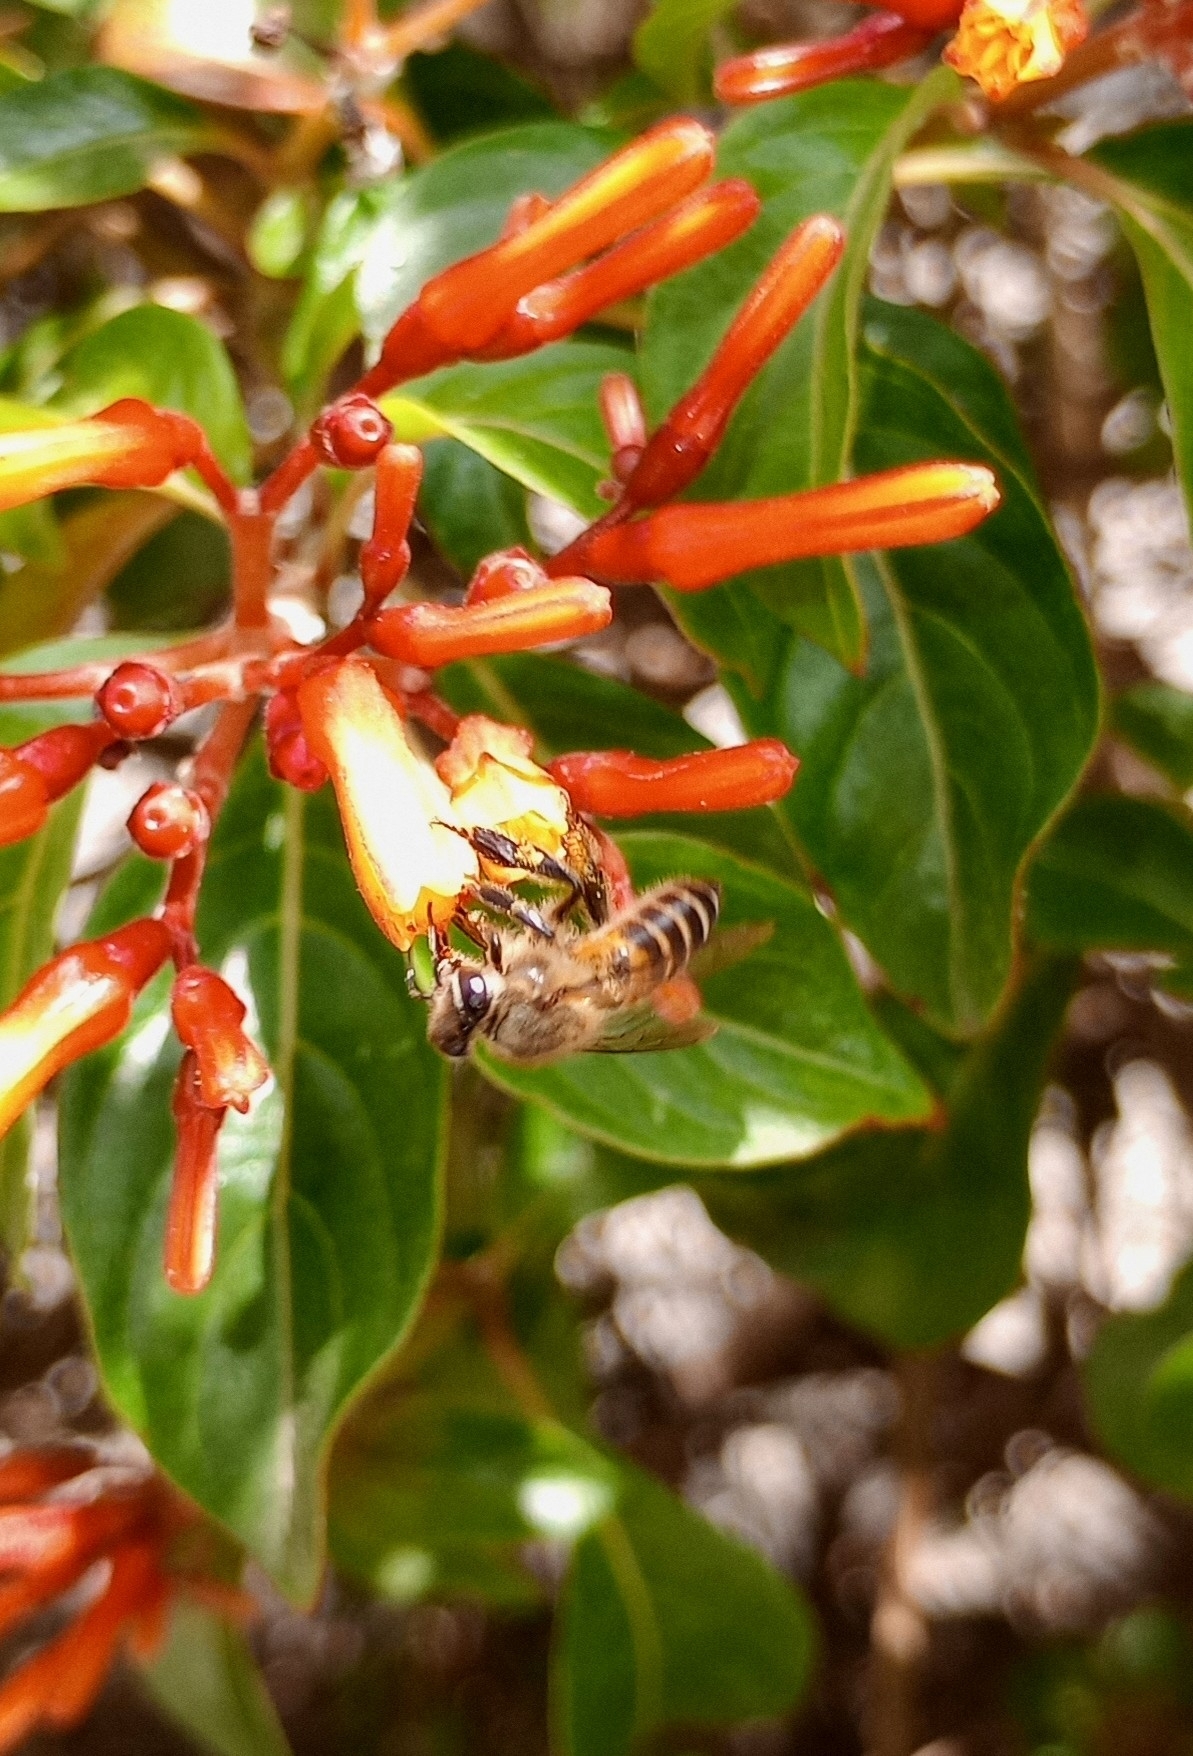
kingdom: Animalia
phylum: Arthropoda
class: Insecta
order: Hymenoptera
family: Apidae
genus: Apis
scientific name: Apis cerana
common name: Honey bee
